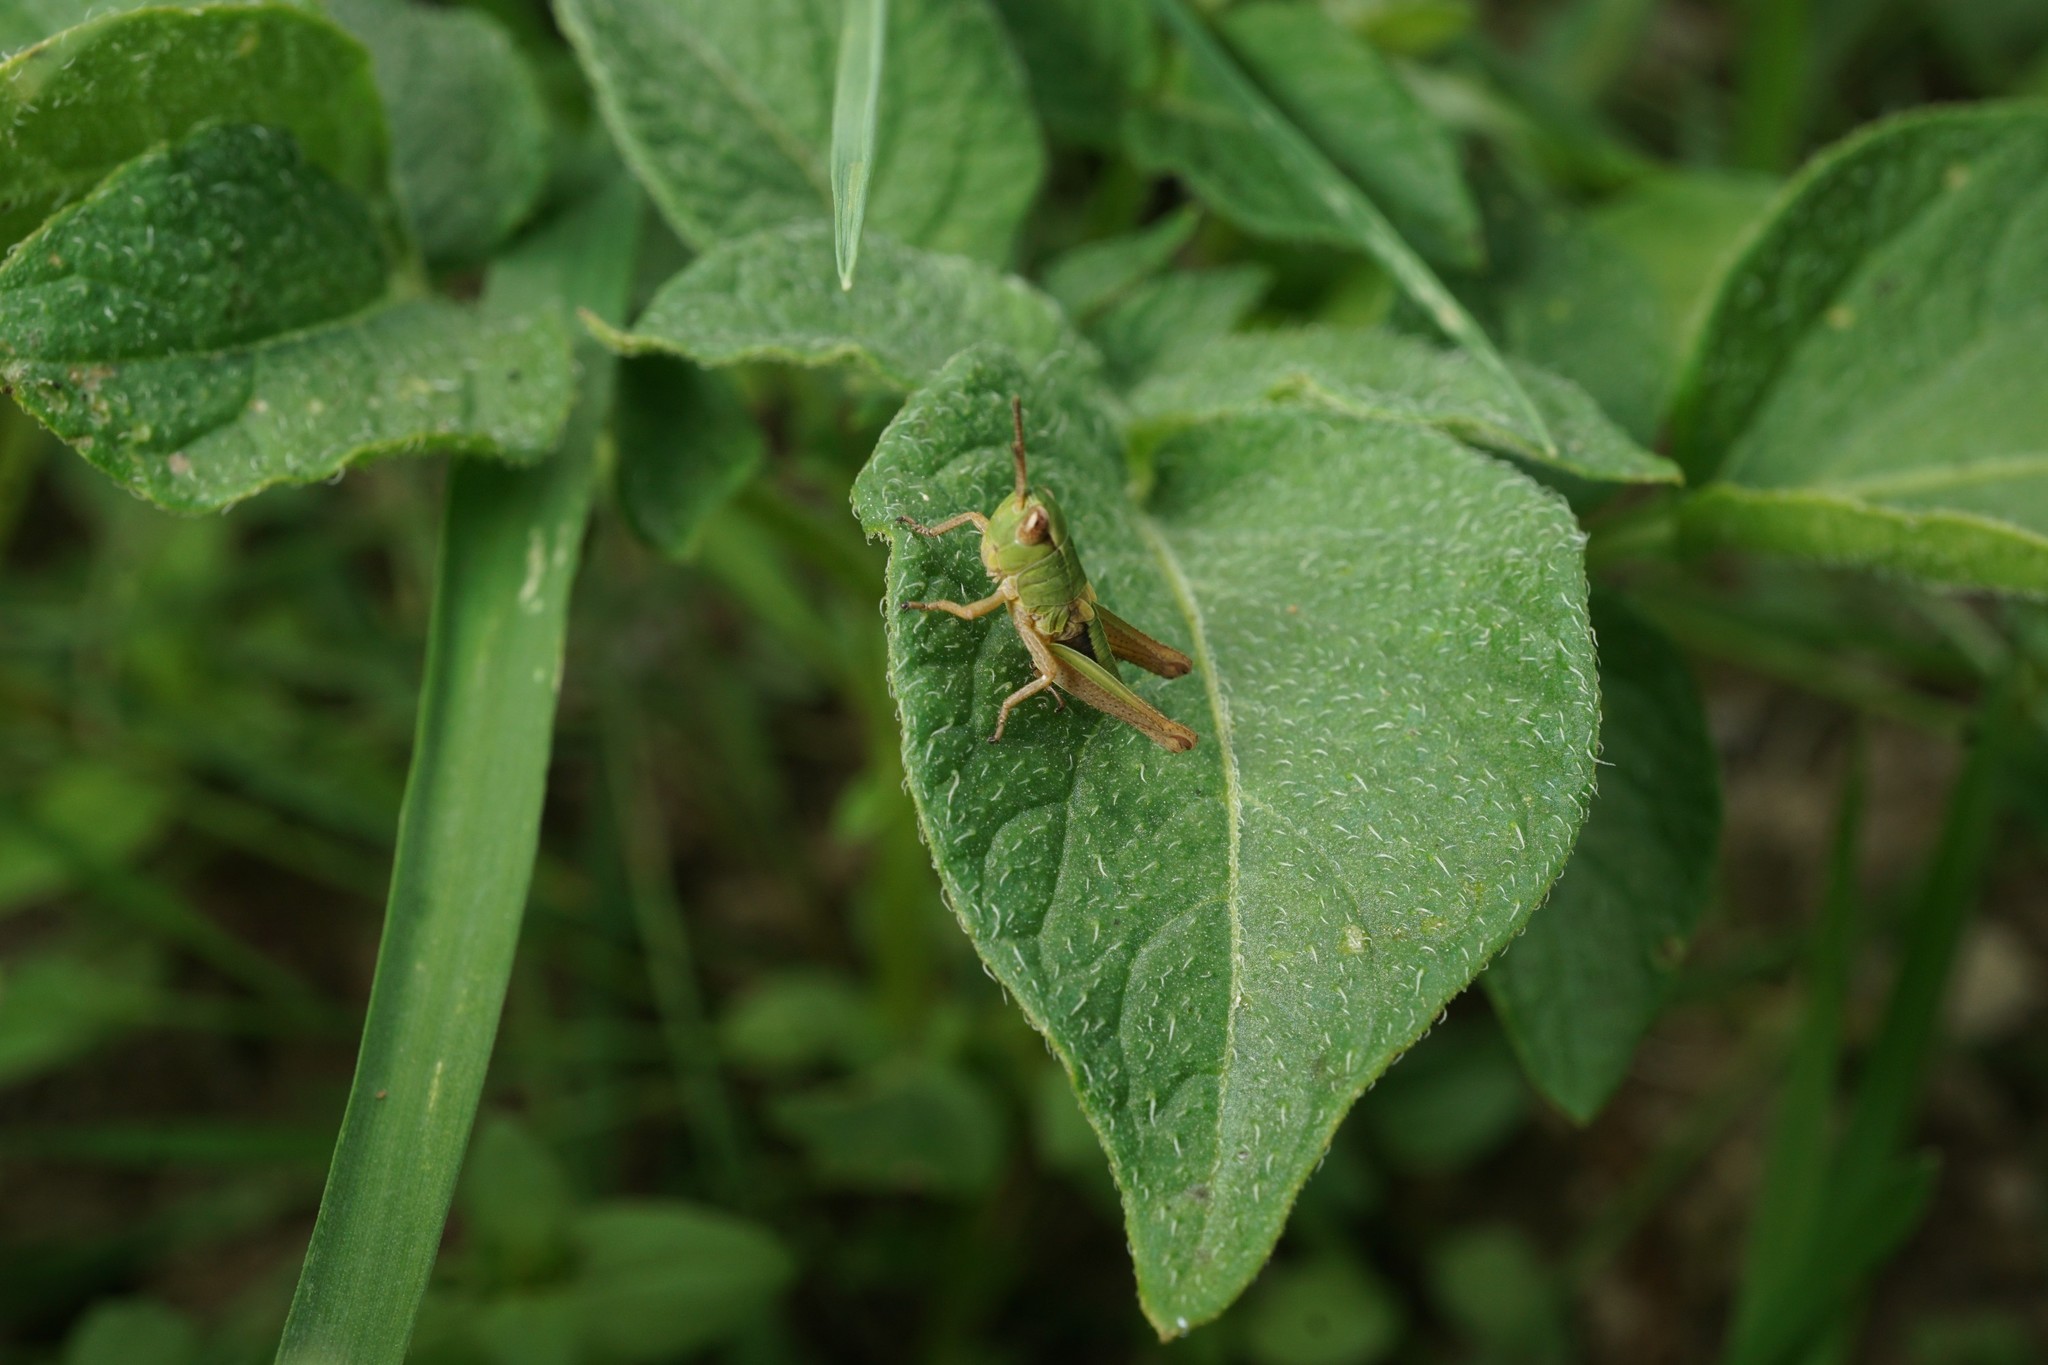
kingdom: Animalia
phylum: Arthropoda
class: Insecta
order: Orthoptera
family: Acrididae
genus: Pseudochorthippus
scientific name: Pseudochorthippus parallelus
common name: Meadow grasshopper
